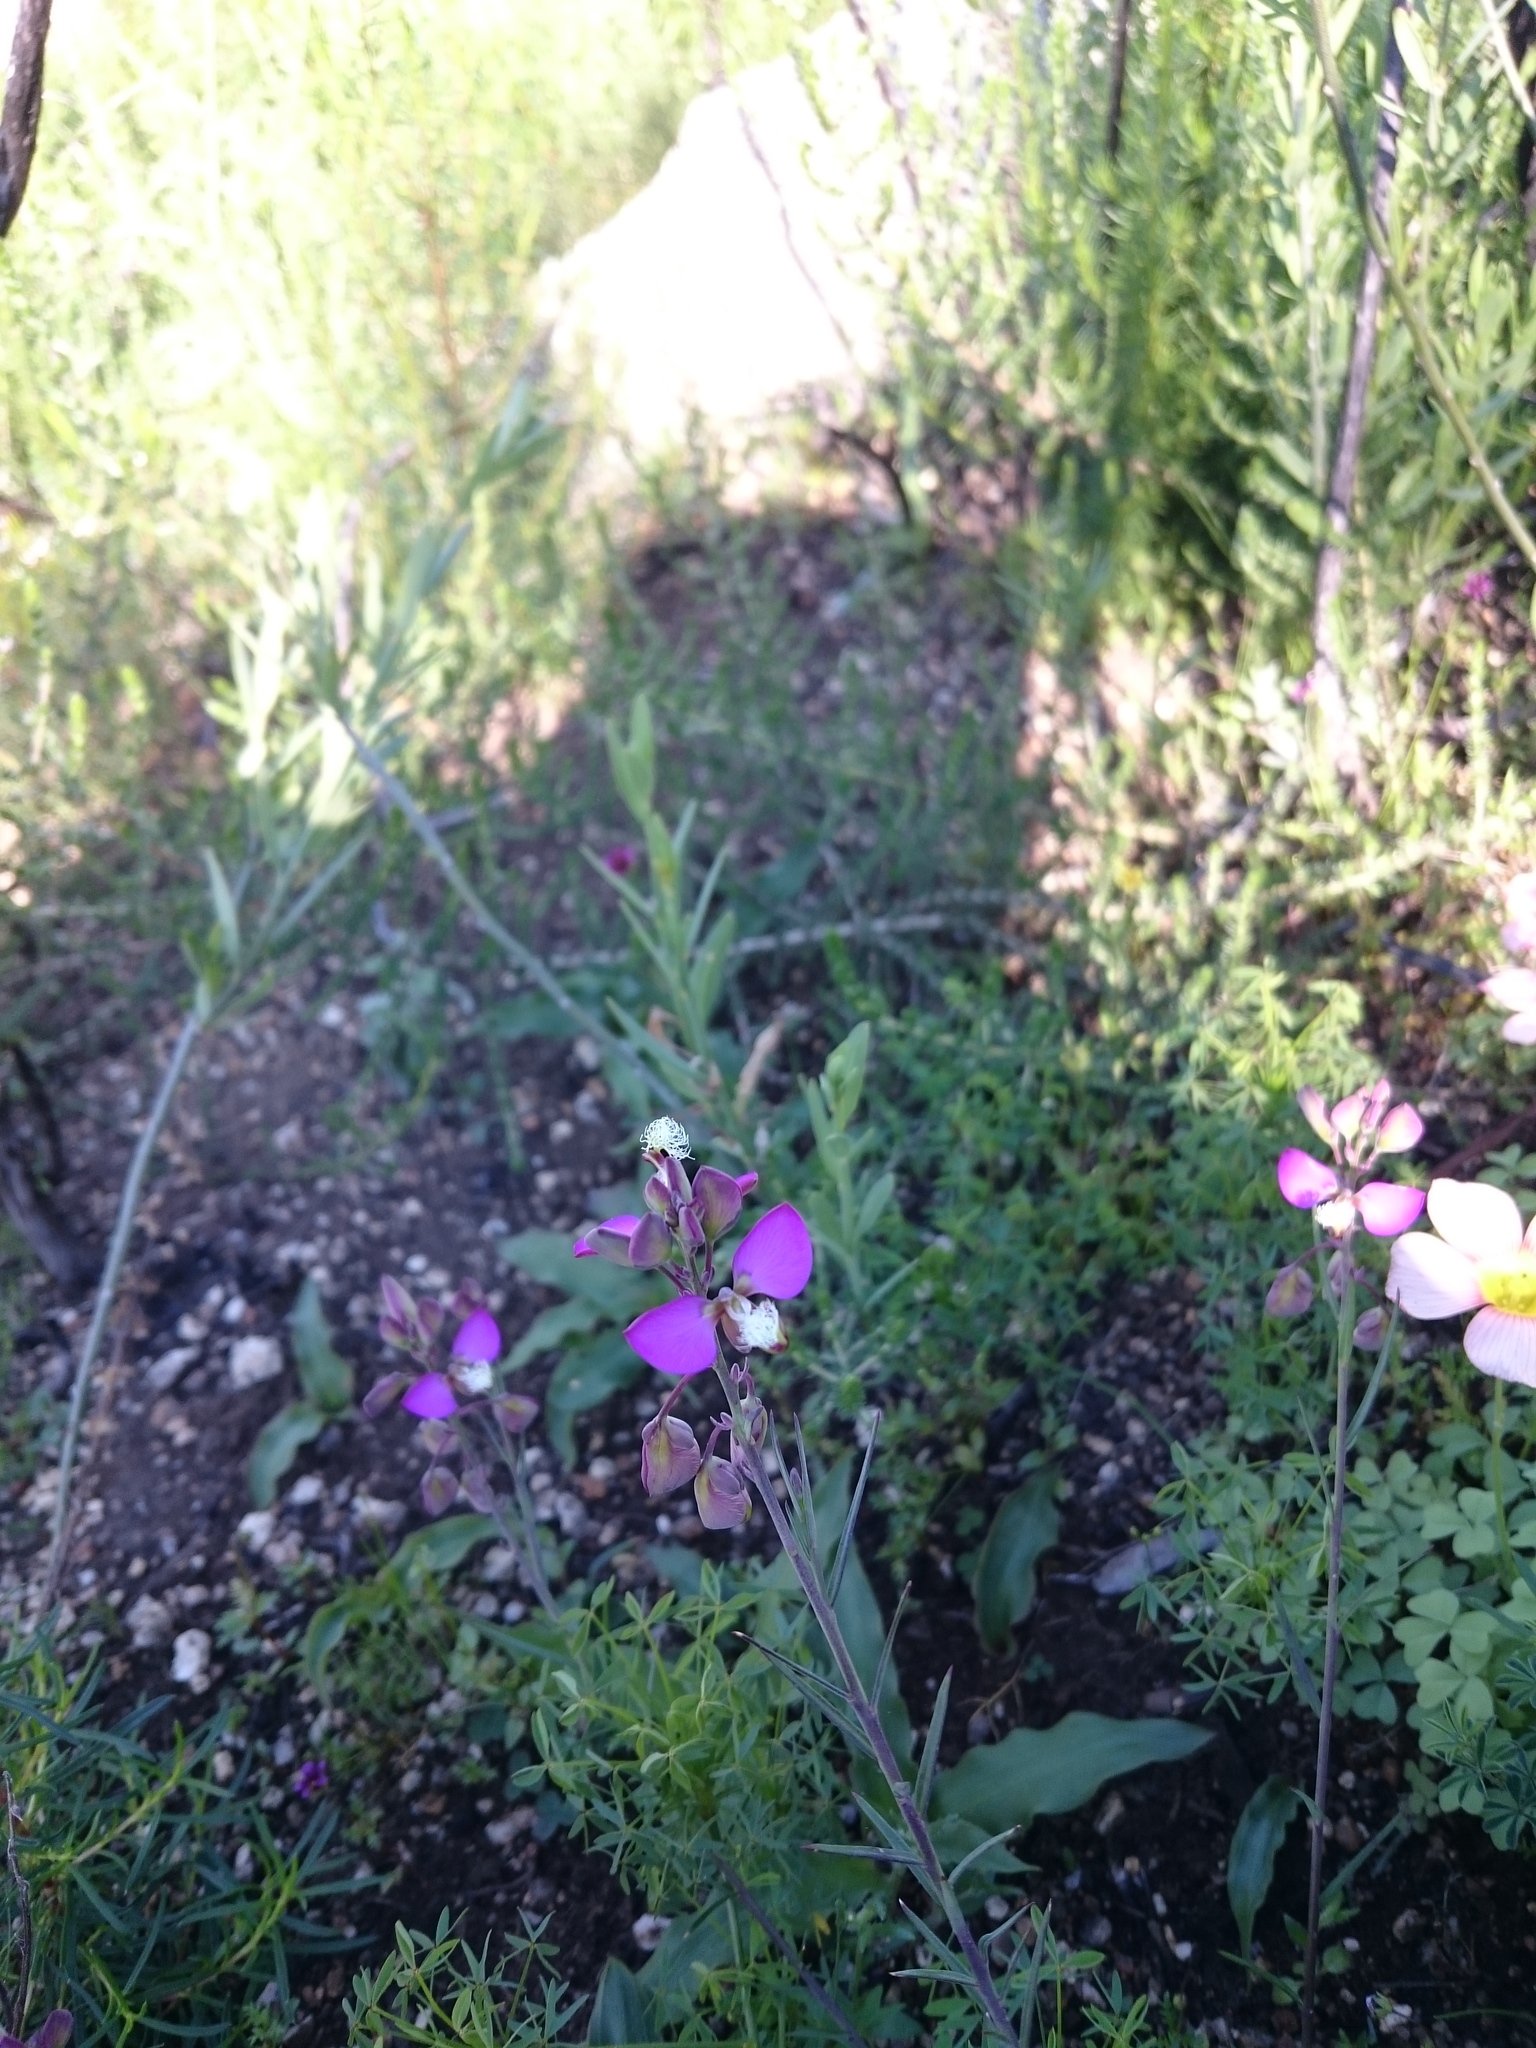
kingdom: Plantae
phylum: Tracheophyta
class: Magnoliopsida
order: Fabales
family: Polygalaceae
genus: Polygala
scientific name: Polygala bracteolata
